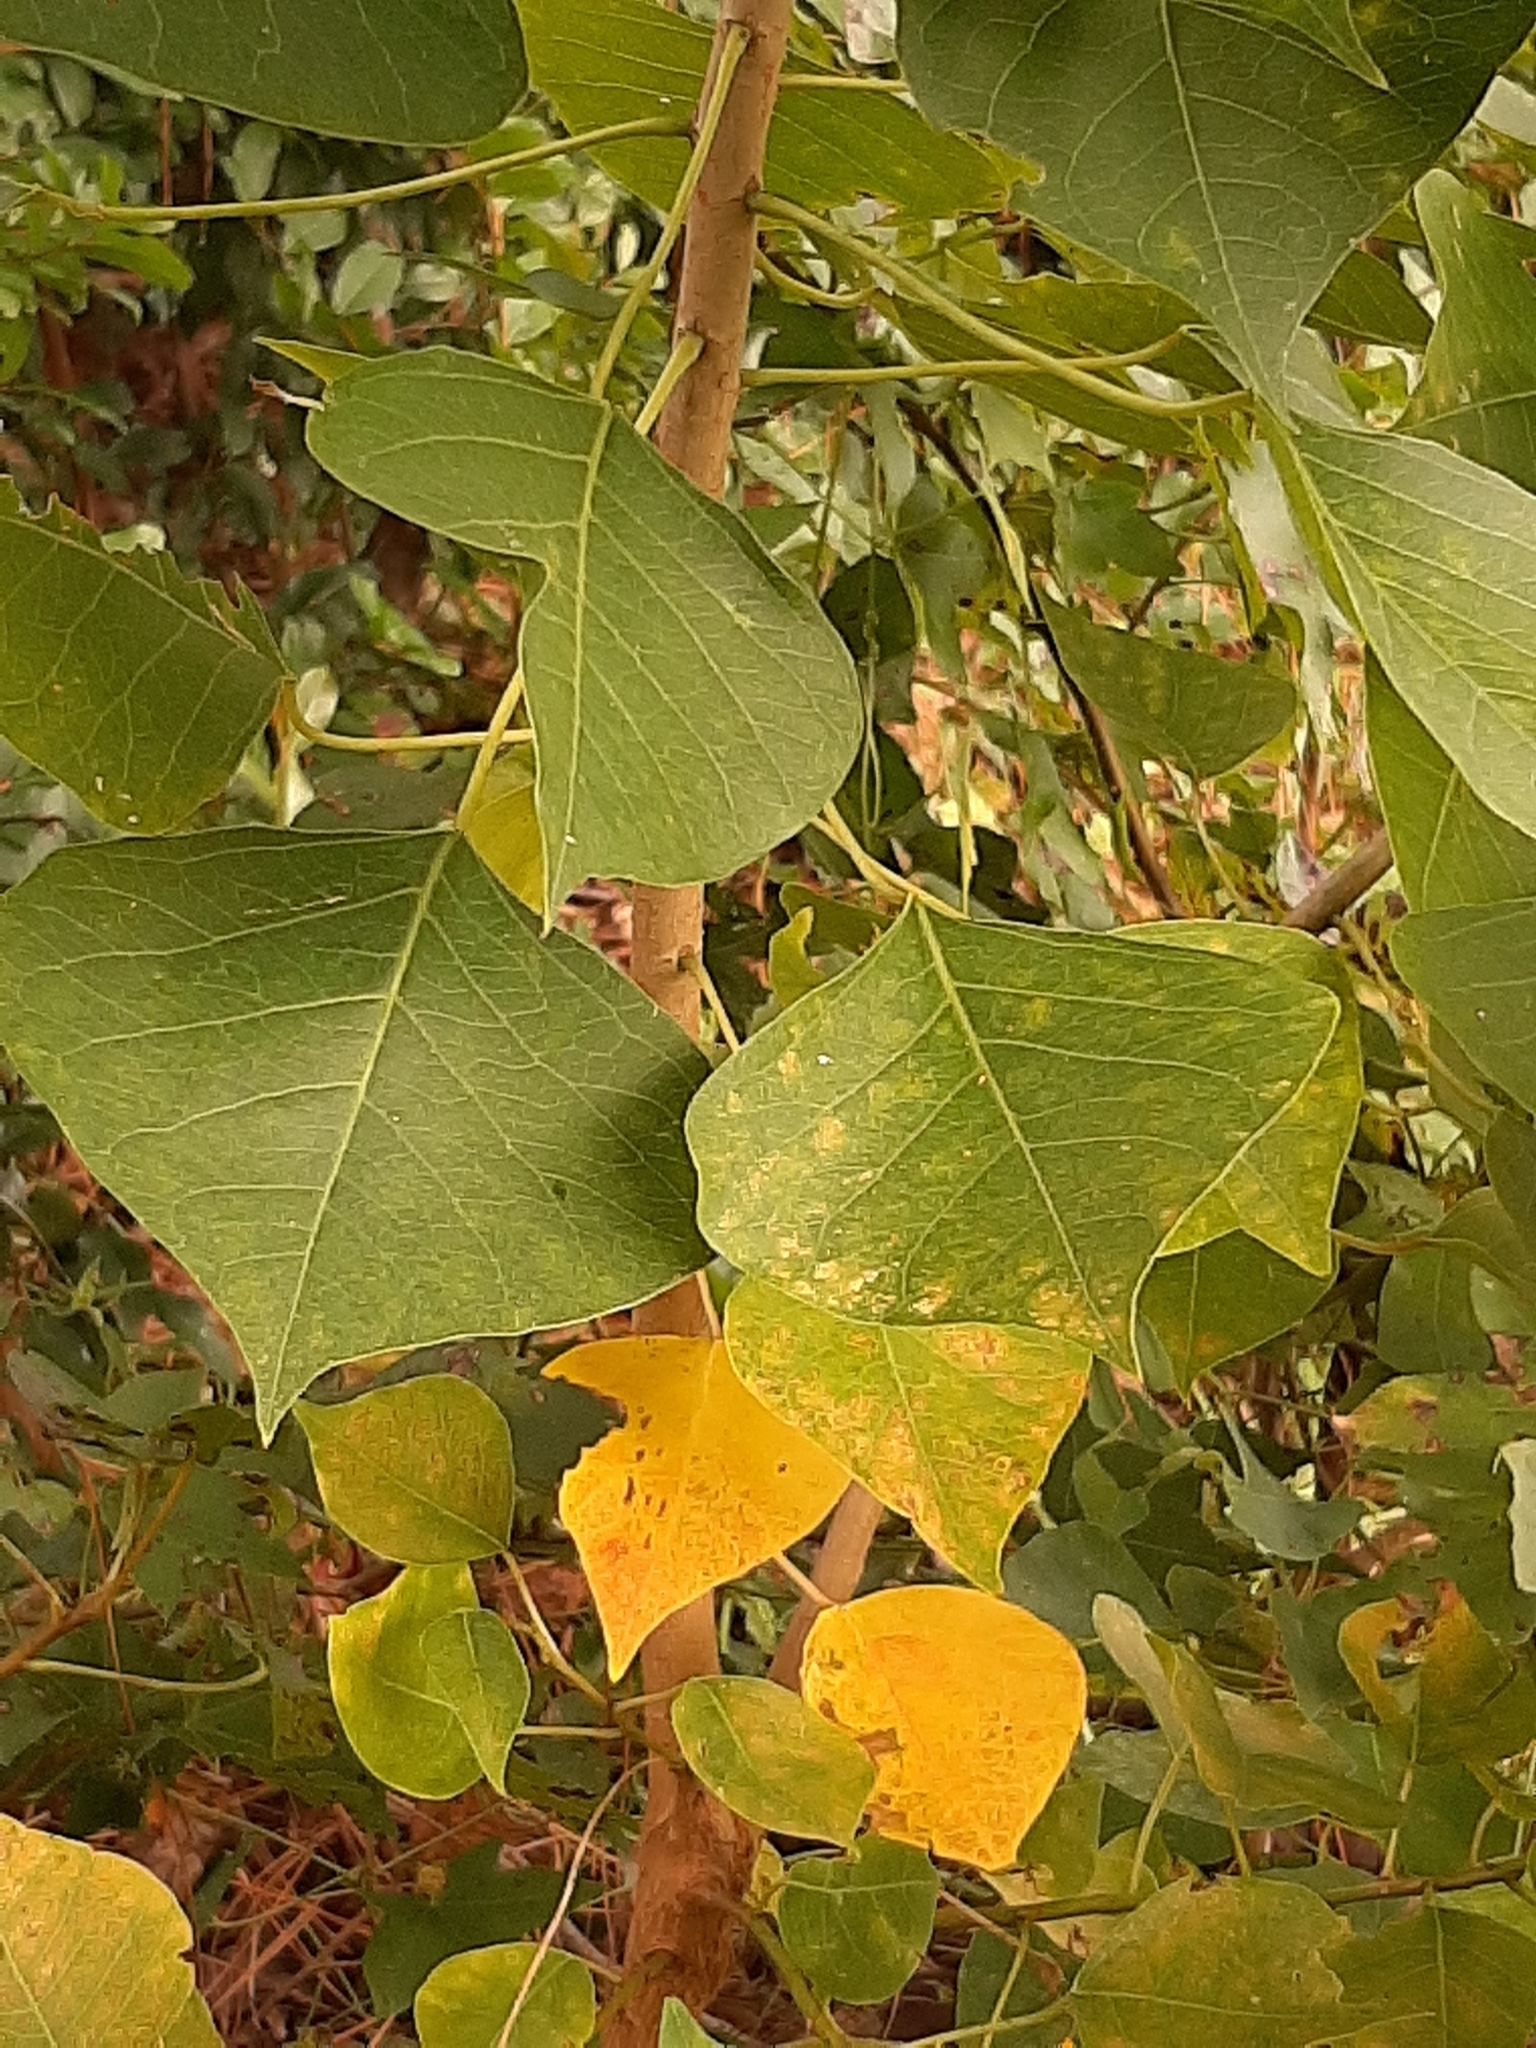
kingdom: Plantae
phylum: Tracheophyta
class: Magnoliopsida
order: Malpighiales
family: Euphorbiaceae
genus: Triadica
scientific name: Triadica sebifera
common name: Chinese tallow
